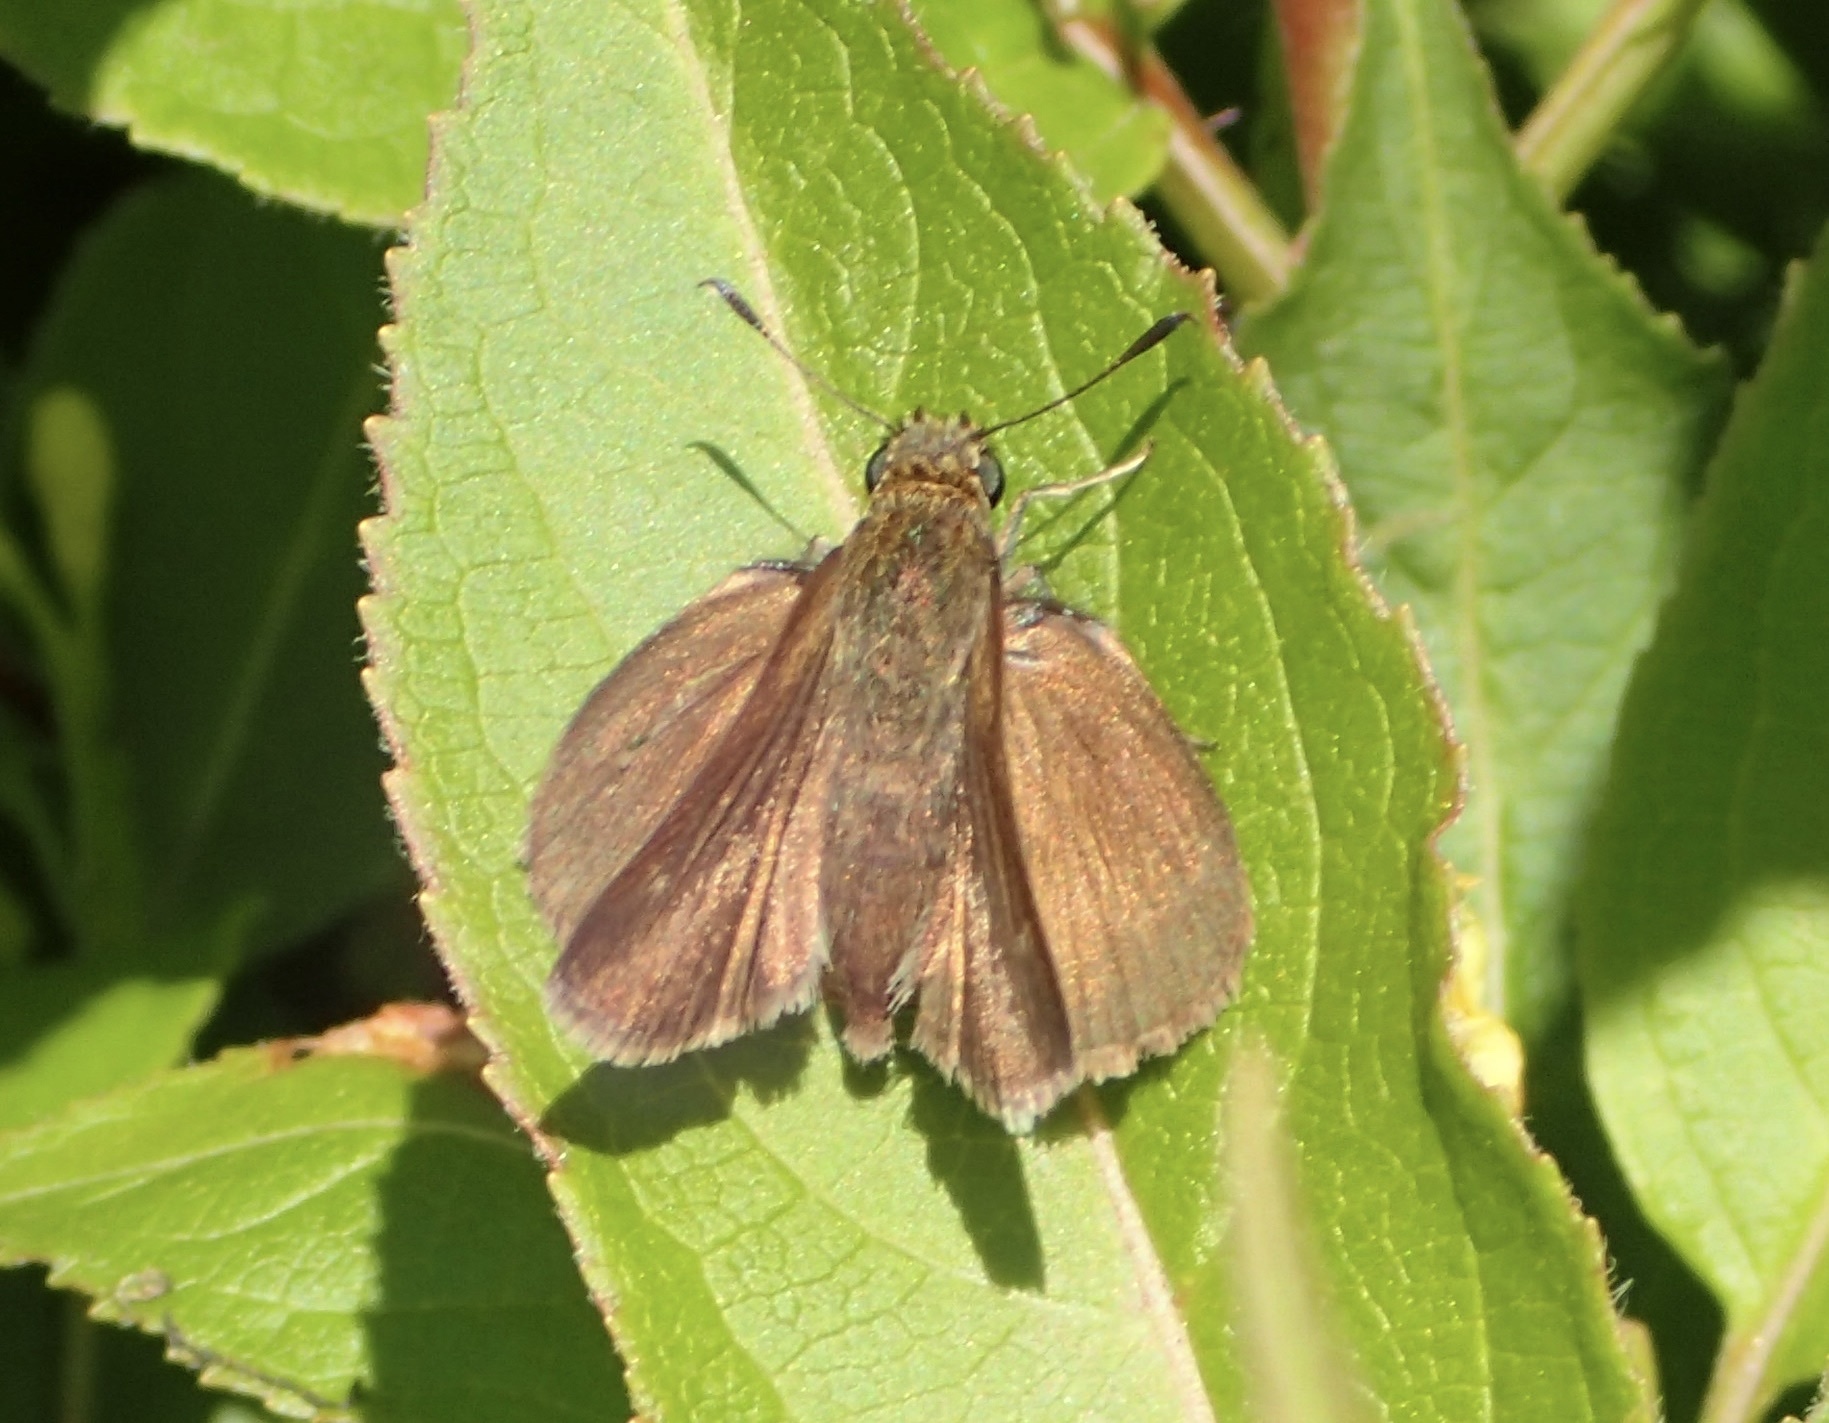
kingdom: Animalia
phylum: Arthropoda
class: Insecta
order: Lepidoptera
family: Hesperiidae
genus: Euphyes
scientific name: Euphyes vestris
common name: Dun skipper
